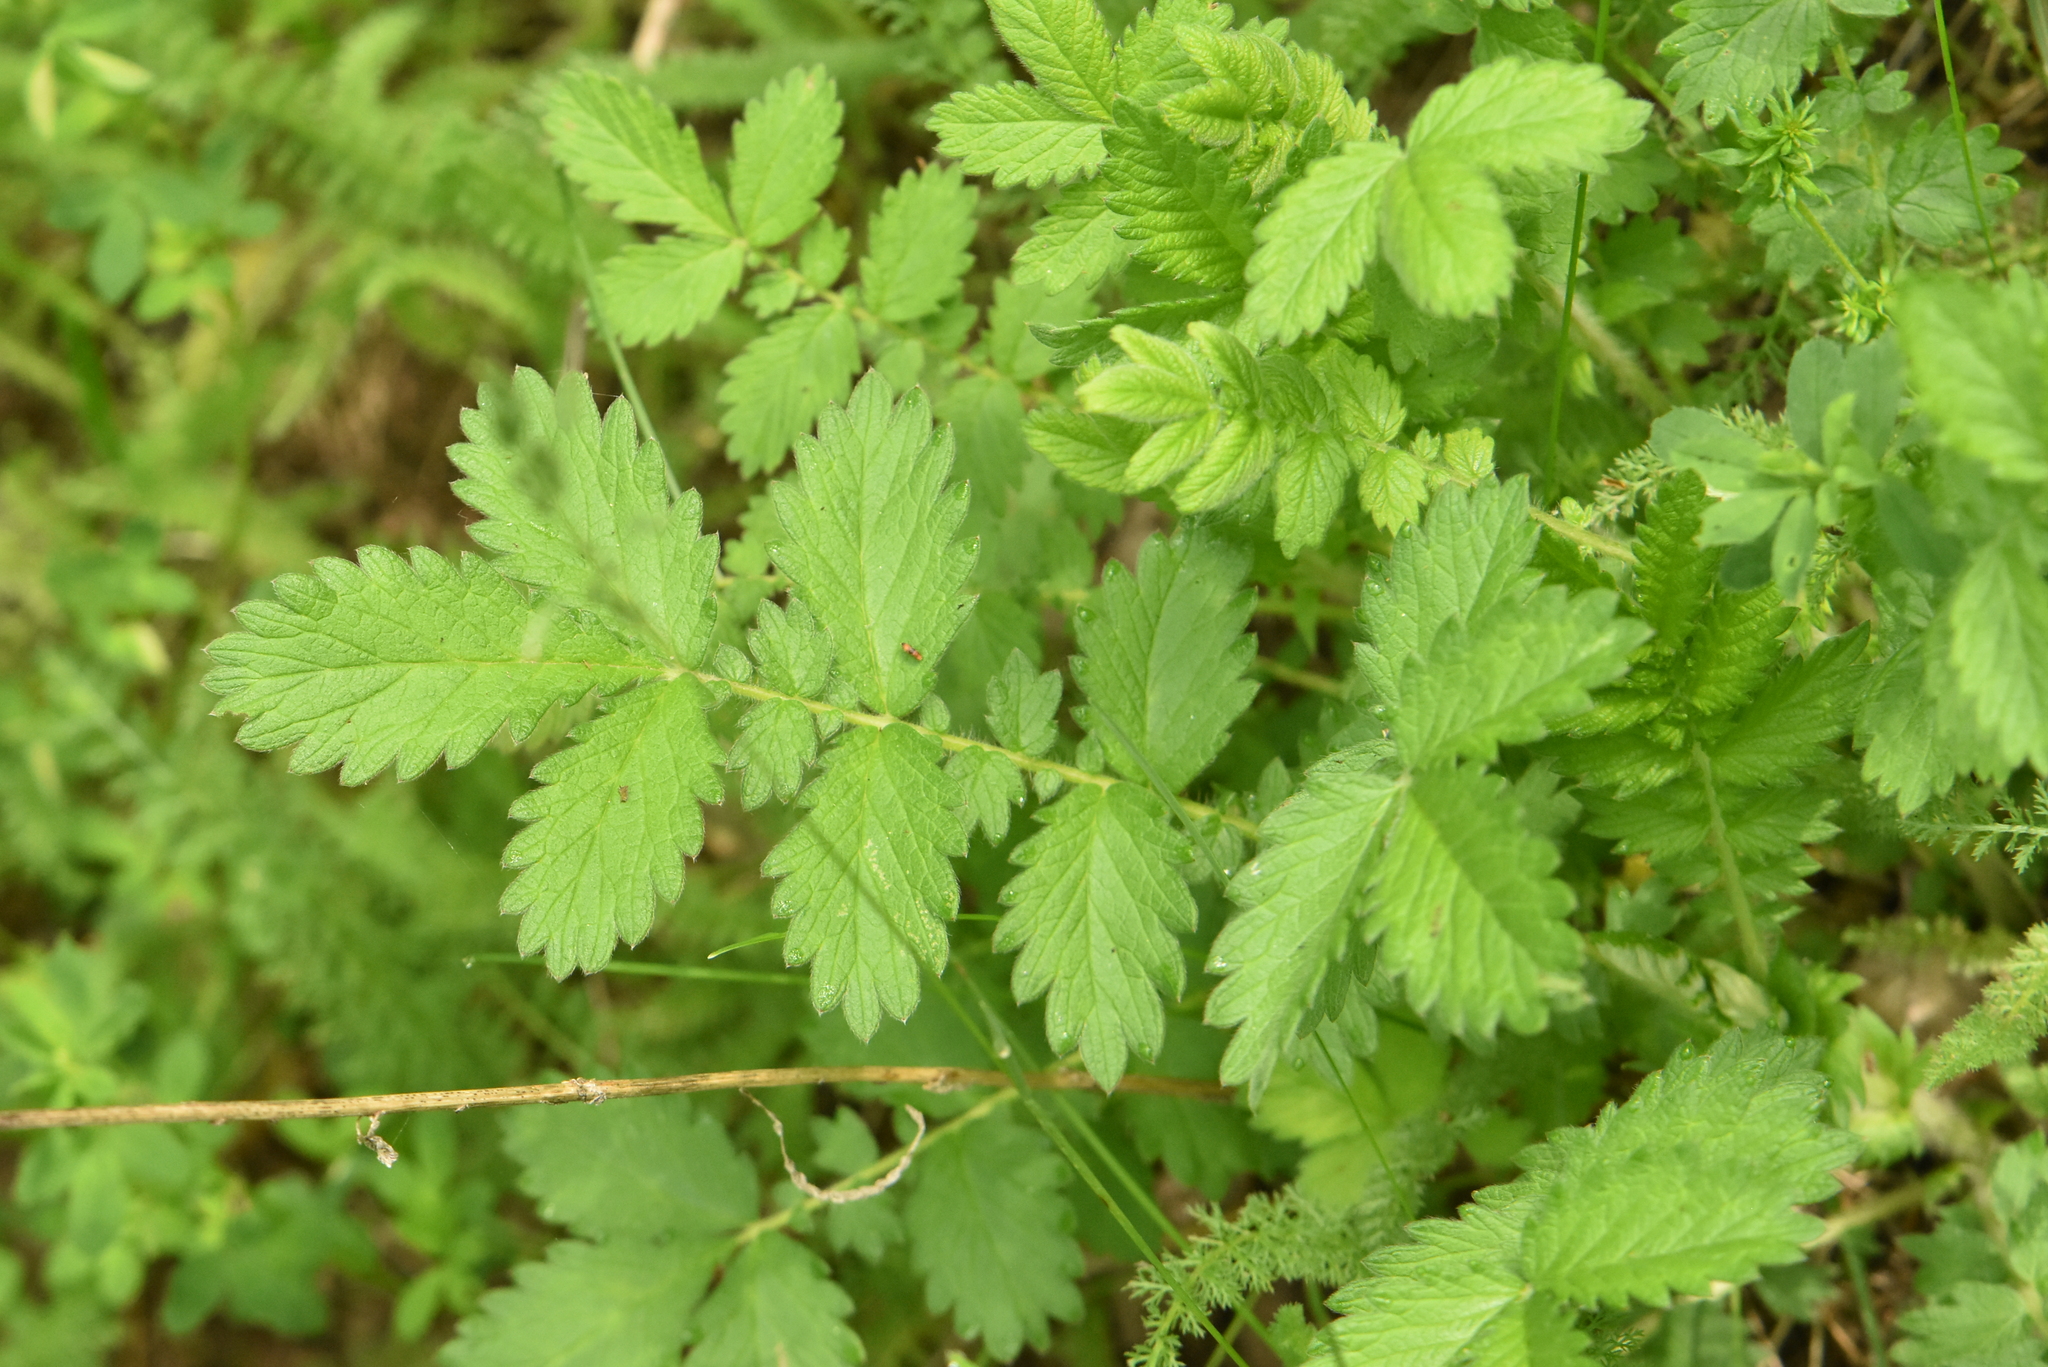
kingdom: Plantae
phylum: Tracheophyta
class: Magnoliopsida
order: Rosales
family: Rosaceae
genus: Agrimonia
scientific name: Agrimonia eupatoria
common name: Agrimony
